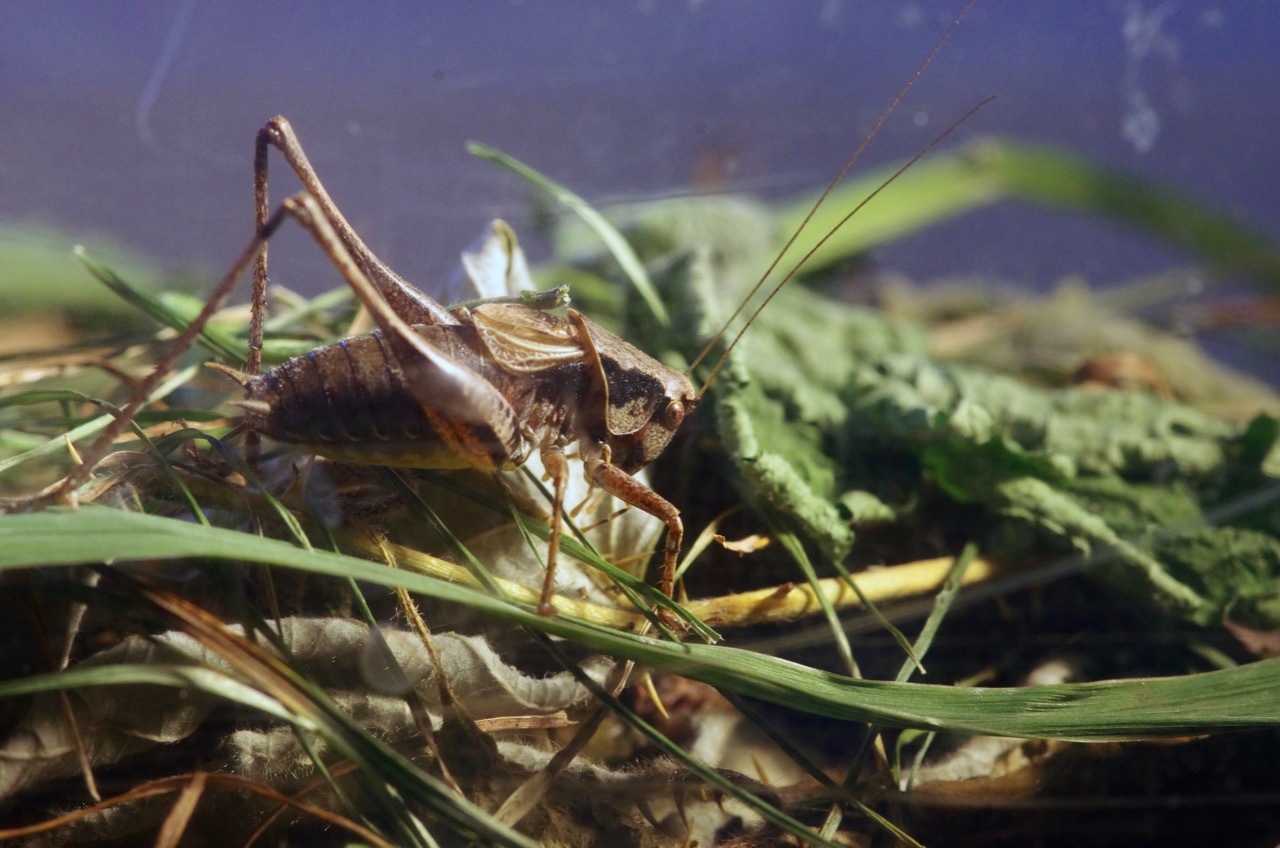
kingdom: Animalia
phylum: Arthropoda
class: Insecta
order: Orthoptera
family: Tettigoniidae
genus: Pholidoptera
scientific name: Pholidoptera griseoaptera
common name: Dark bush-cricket
